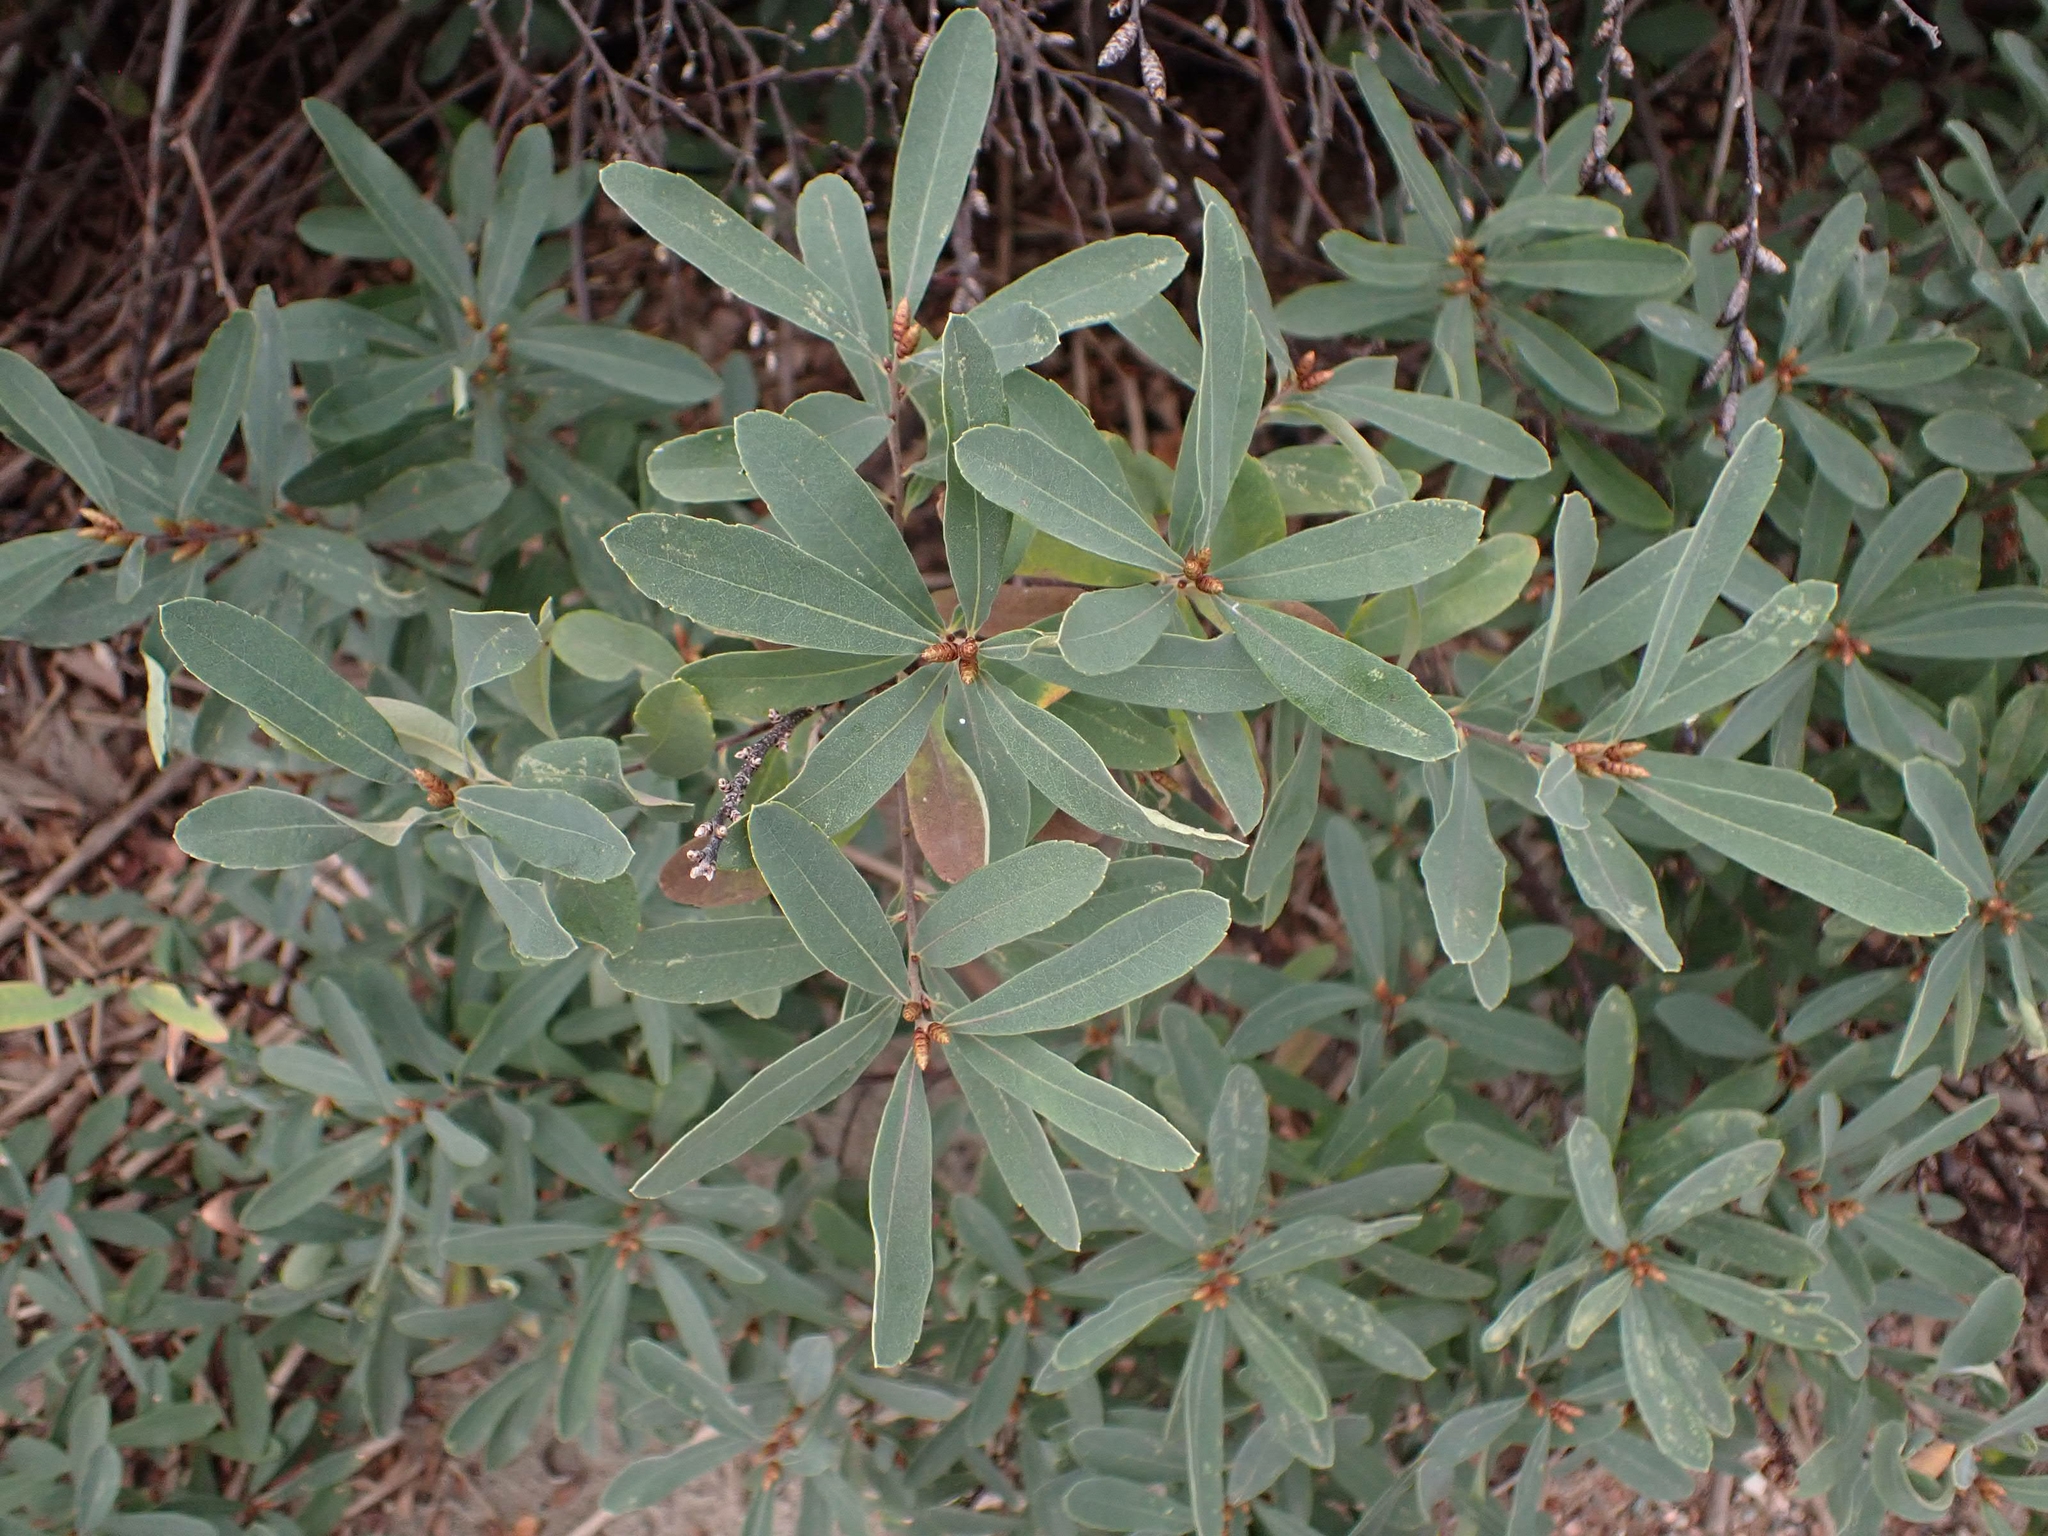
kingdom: Plantae
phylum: Tracheophyta
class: Magnoliopsida
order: Fagales
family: Myricaceae
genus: Myrica
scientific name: Myrica gale
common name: Sweet gale
